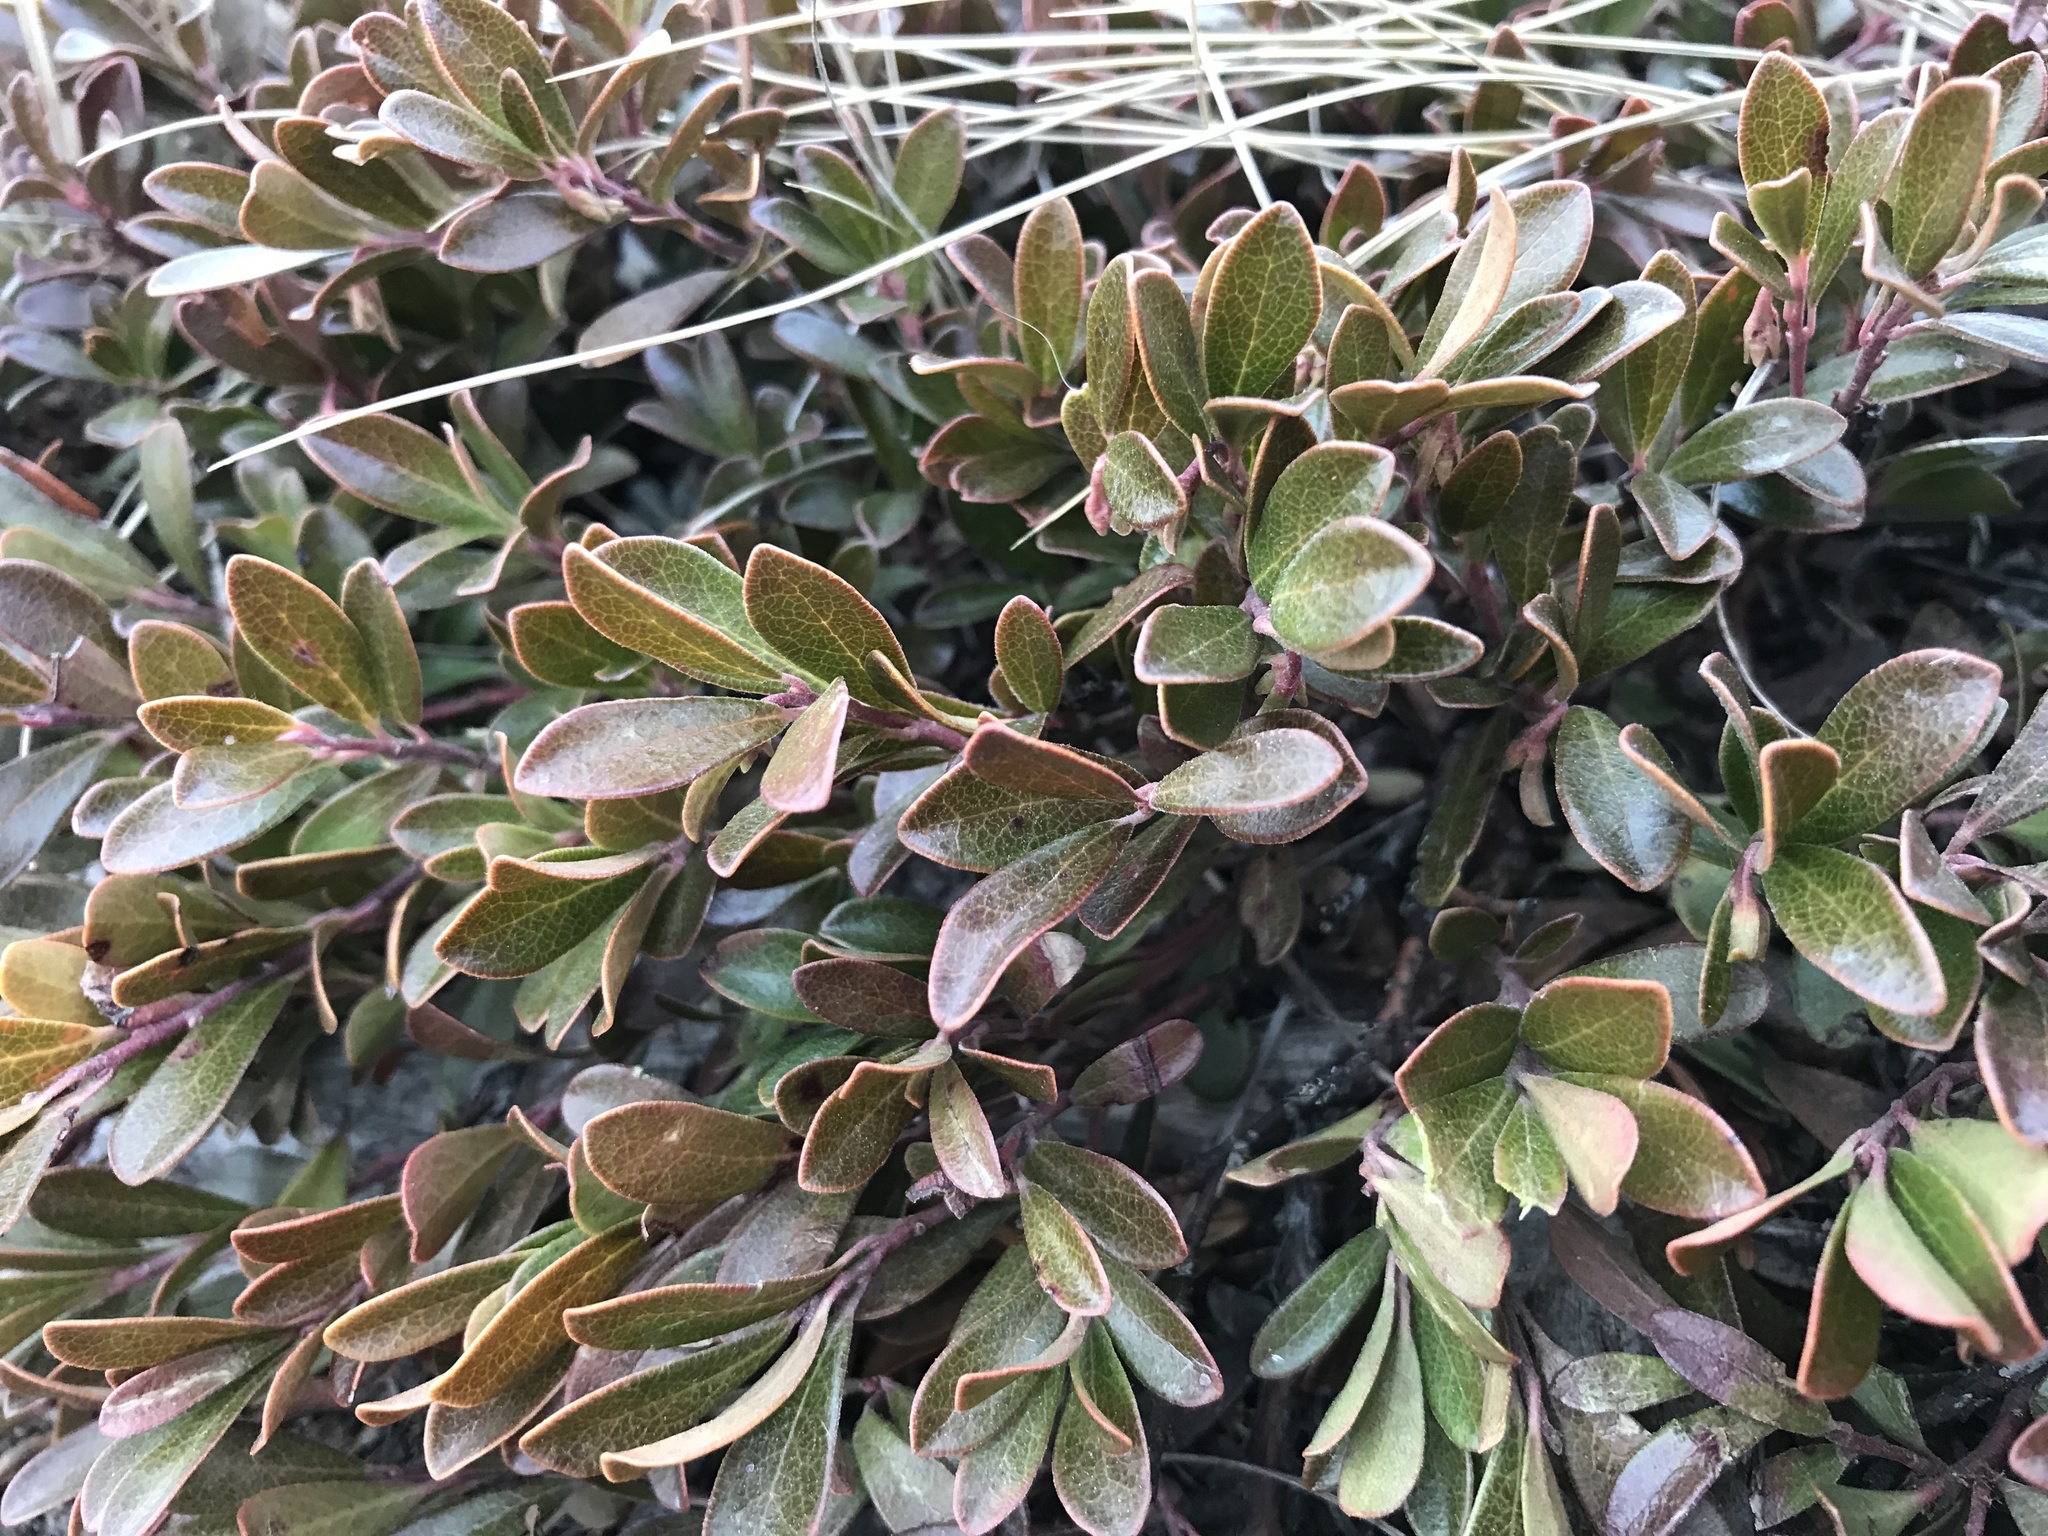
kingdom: Plantae
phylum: Tracheophyta
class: Magnoliopsida
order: Ericales
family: Ericaceae
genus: Arctostaphylos
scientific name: Arctostaphylos uva-ursi
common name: Bearberry
